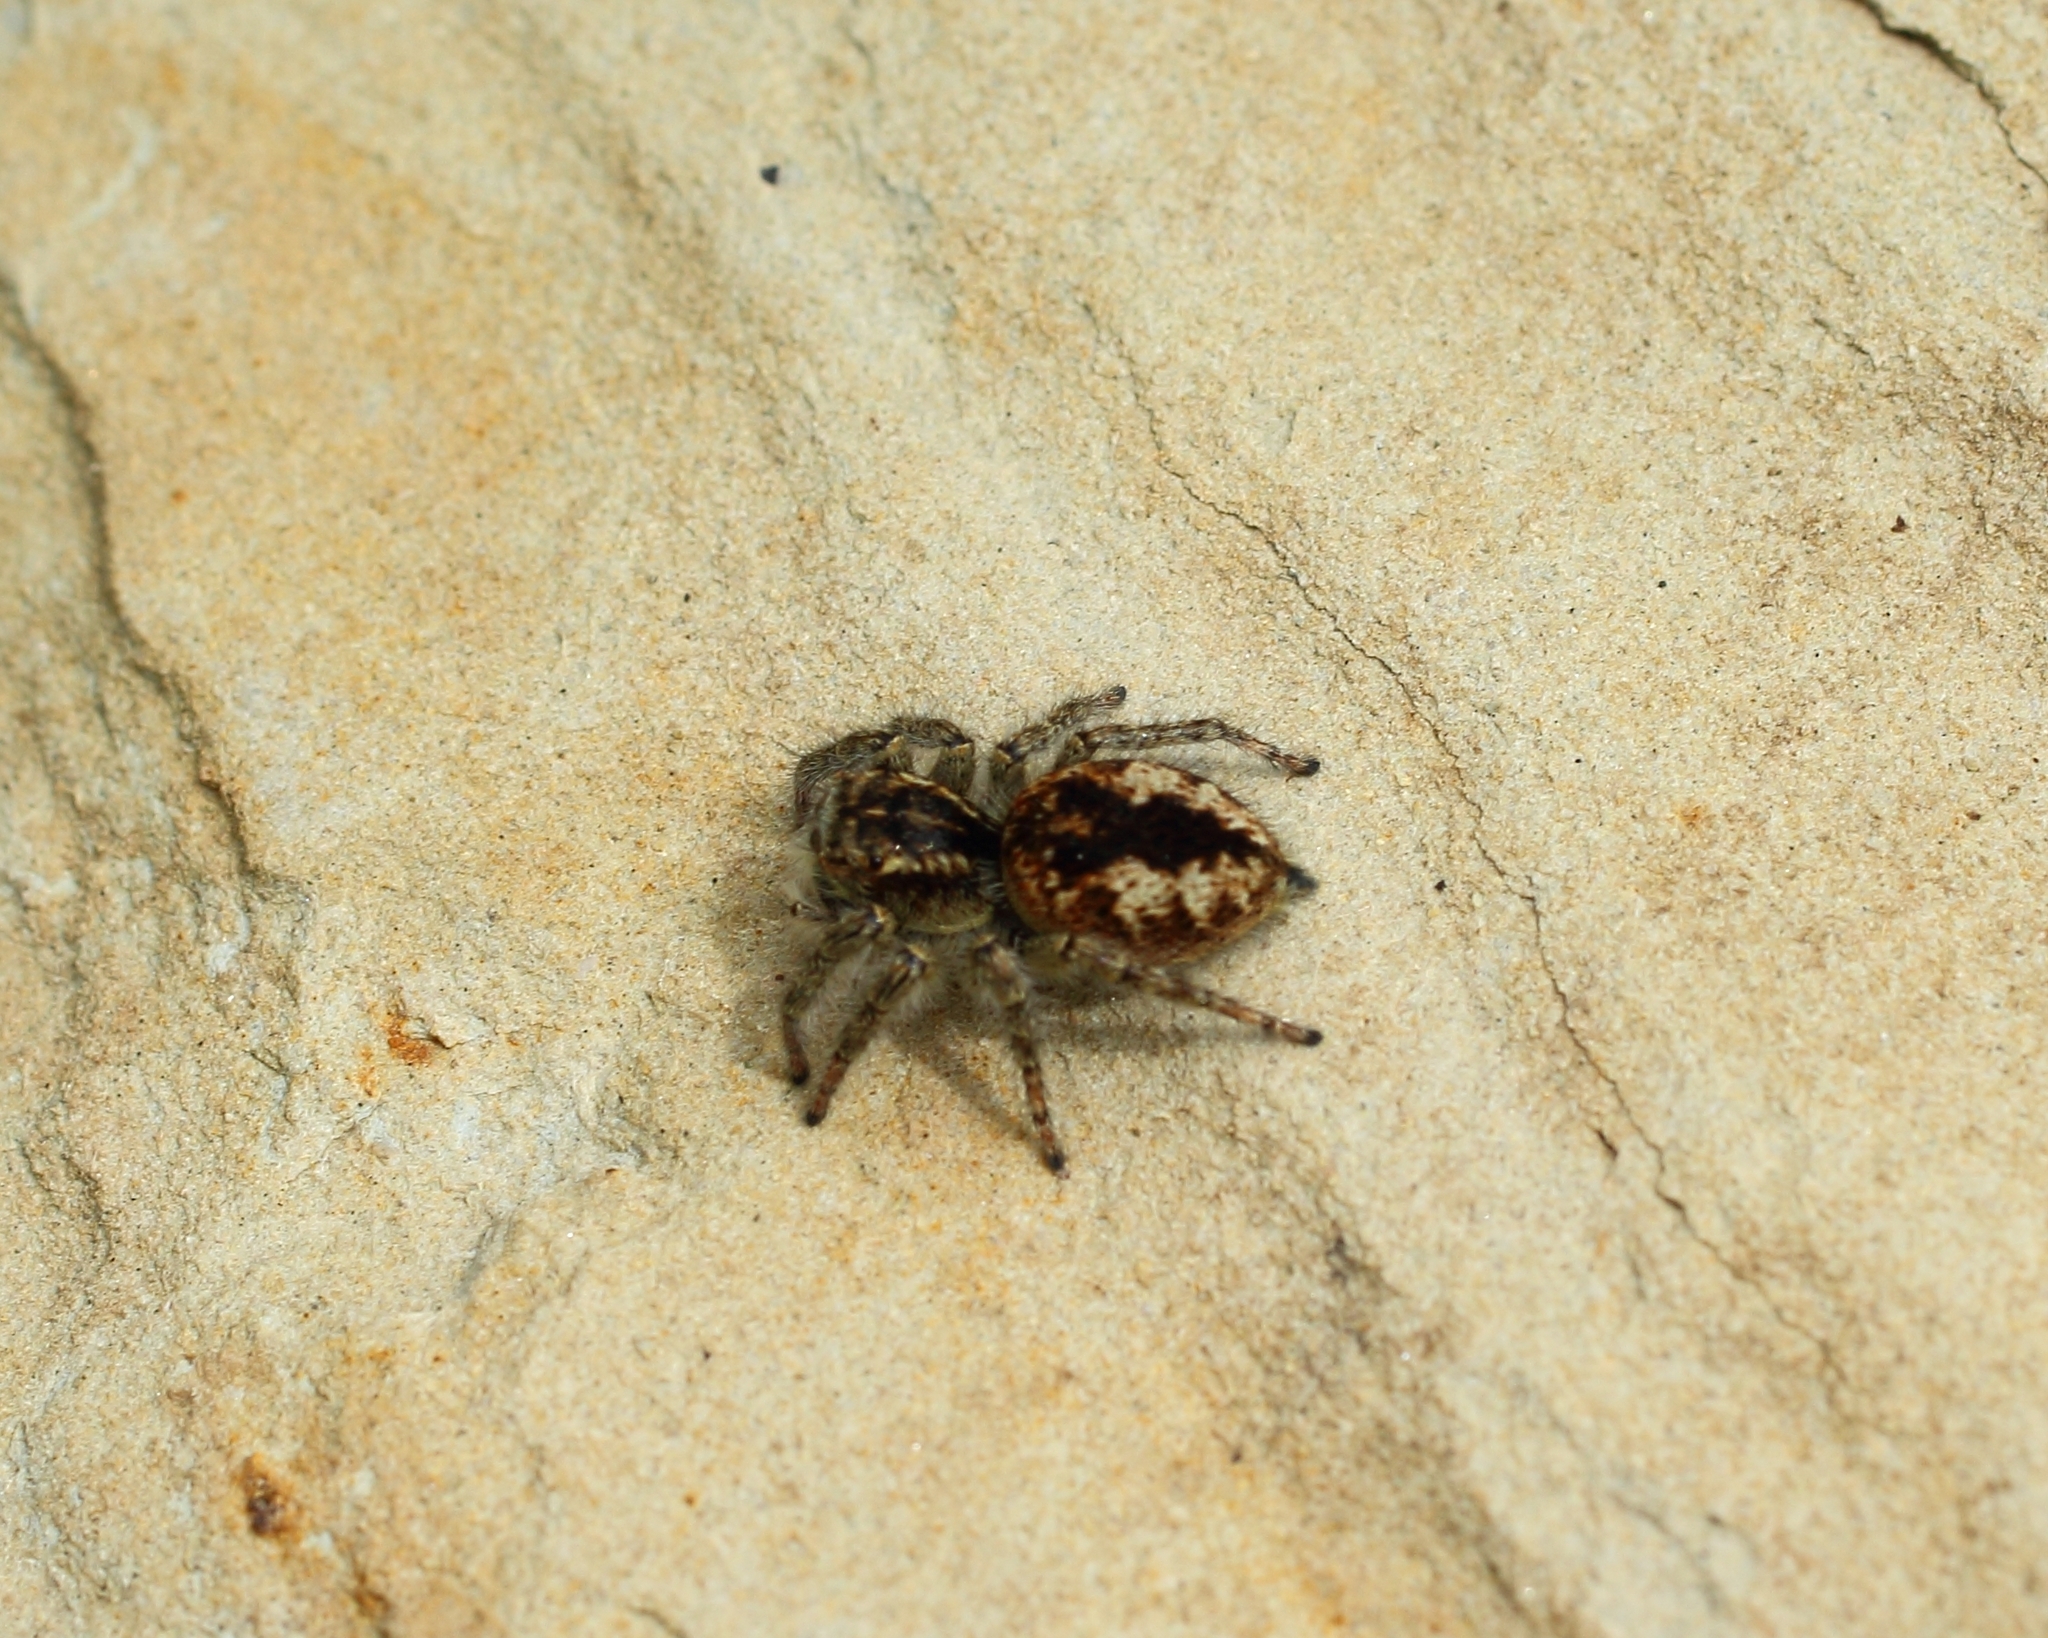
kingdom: Animalia
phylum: Arthropoda
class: Arachnida
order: Araneae
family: Salticidae
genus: Philaeus
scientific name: Philaeus chrysops
